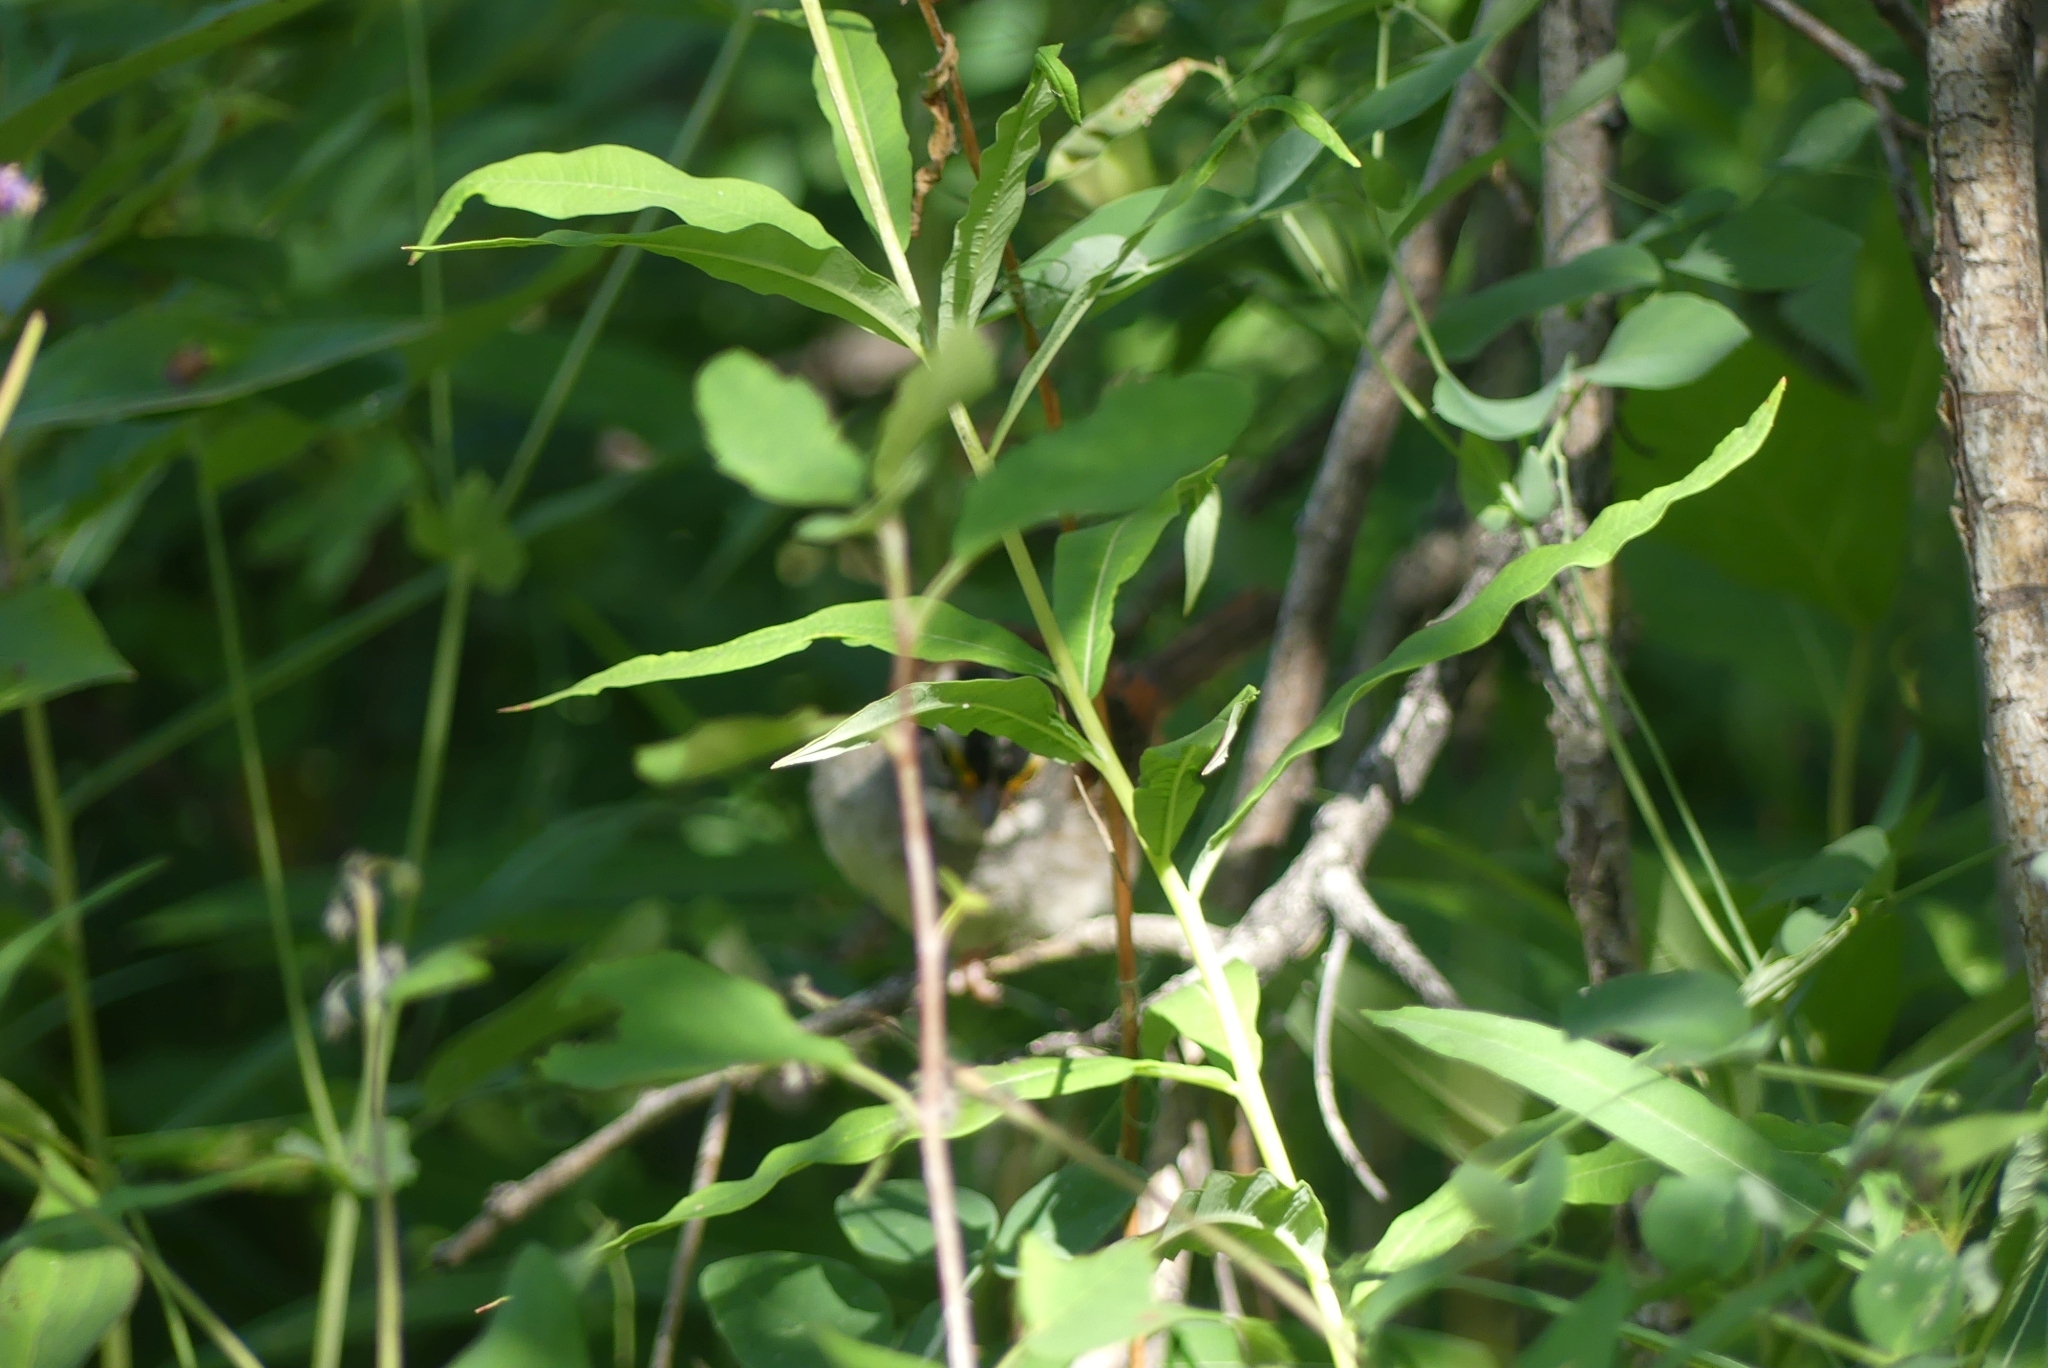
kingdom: Animalia
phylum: Chordata
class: Aves
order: Passeriformes
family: Passerellidae
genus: Zonotrichia
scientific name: Zonotrichia albicollis
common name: White-throated sparrow
